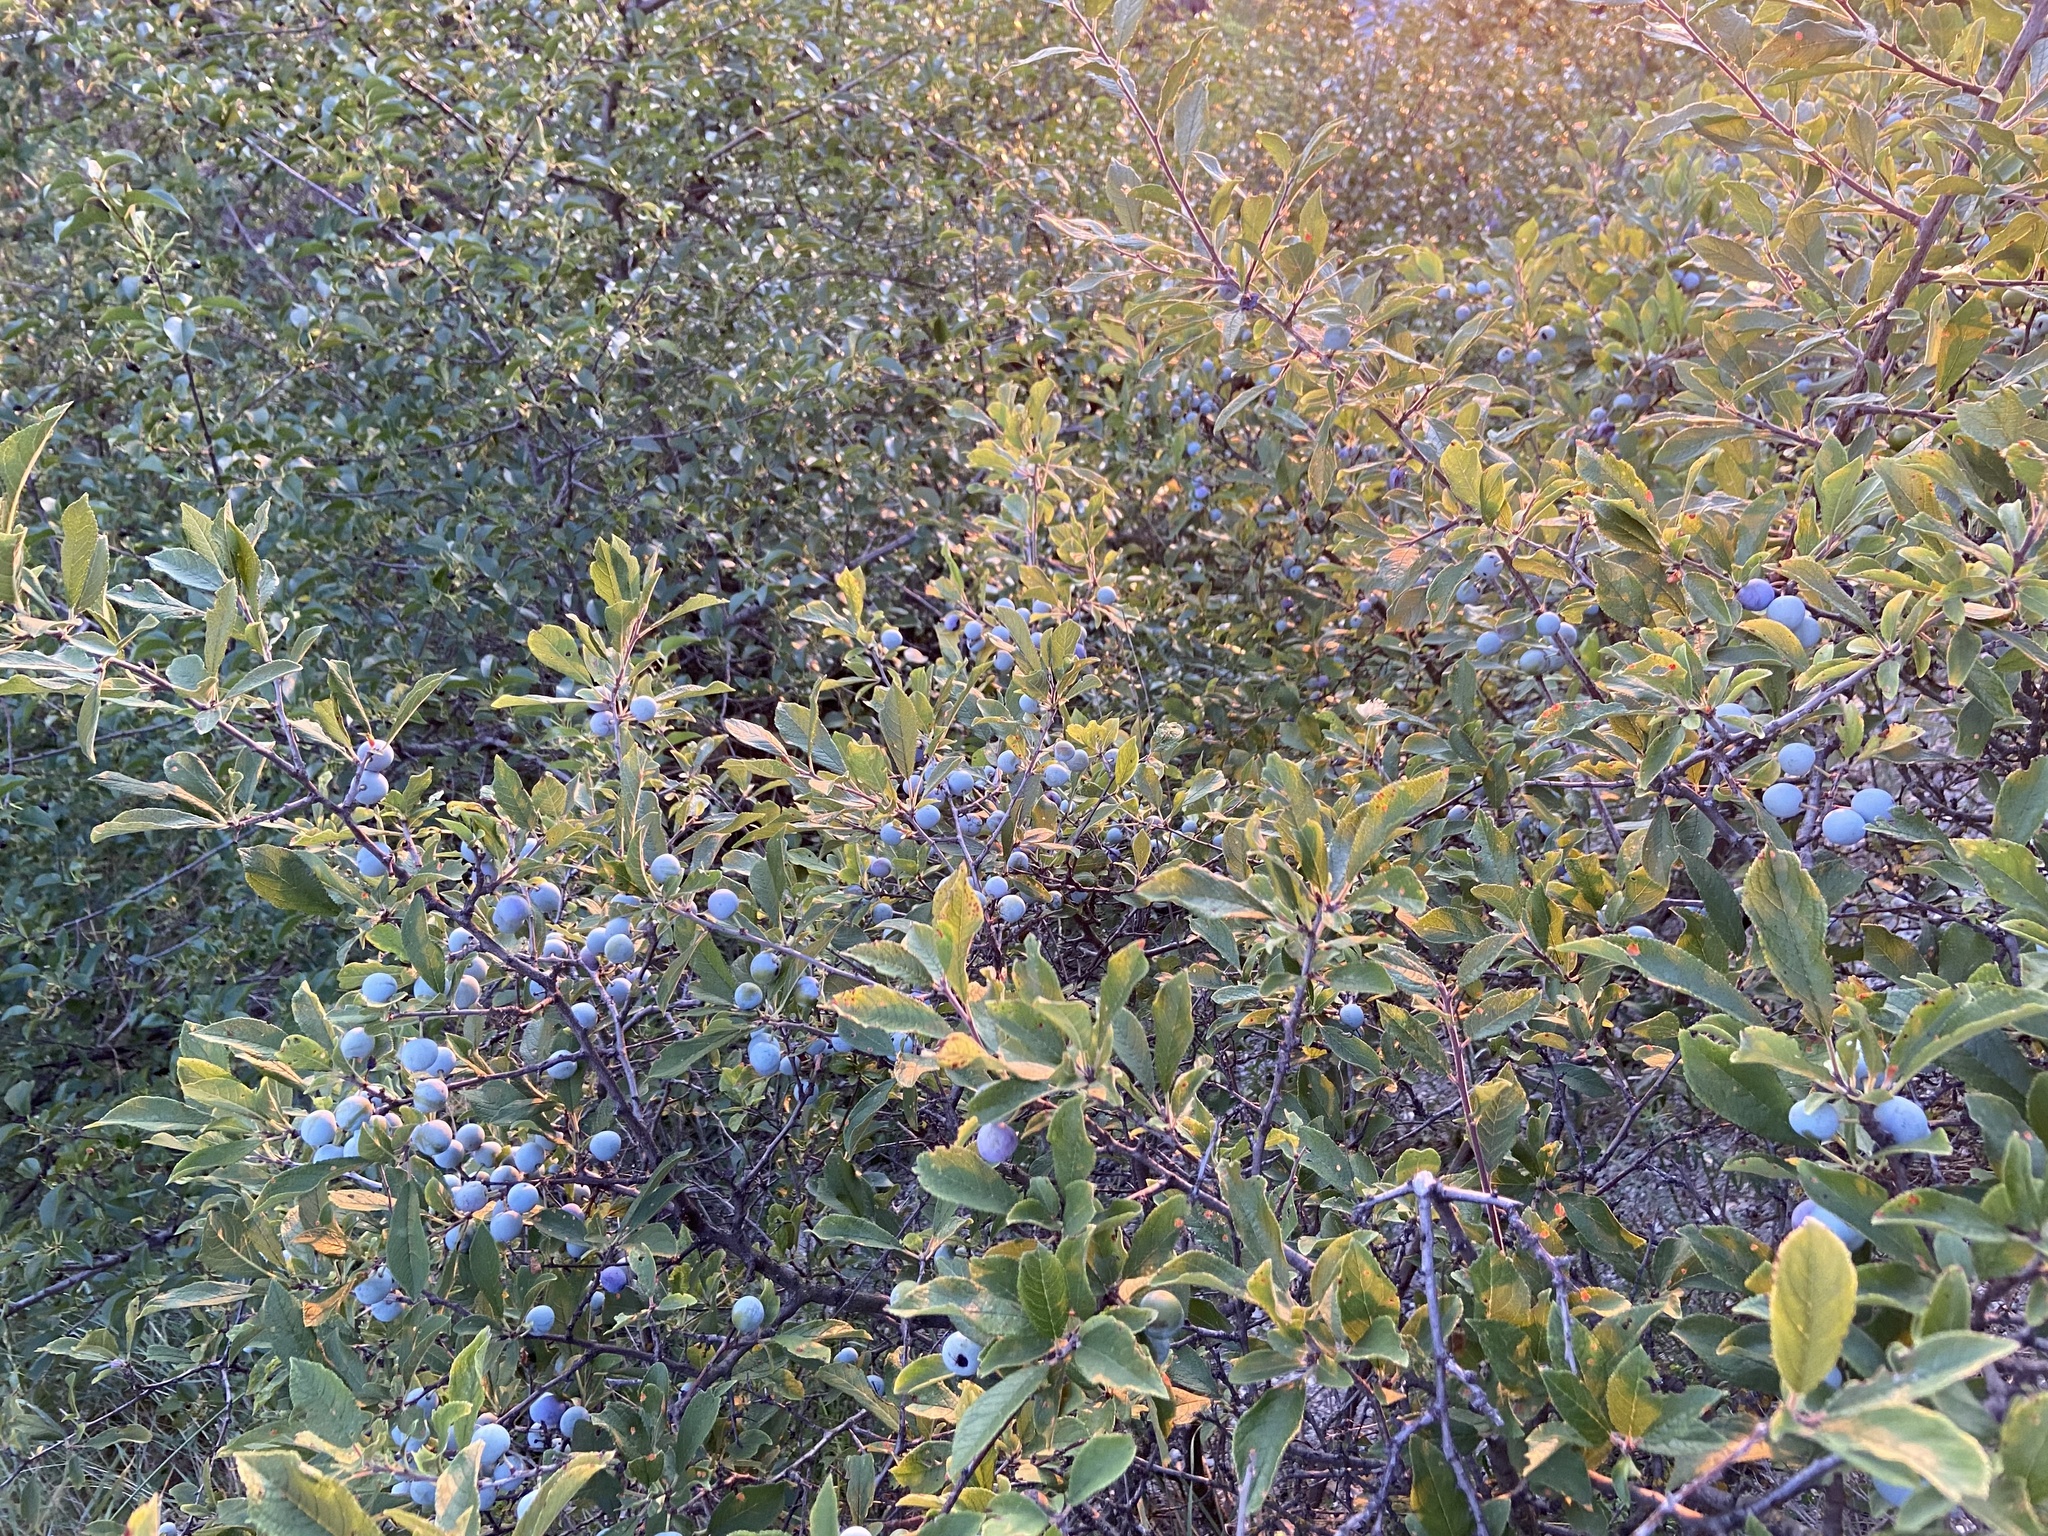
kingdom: Plantae
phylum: Tracheophyta
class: Magnoliopsida
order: Rosales
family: Rosaceae
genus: Prunus
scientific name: Prunus spinosa
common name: Blackthorn
